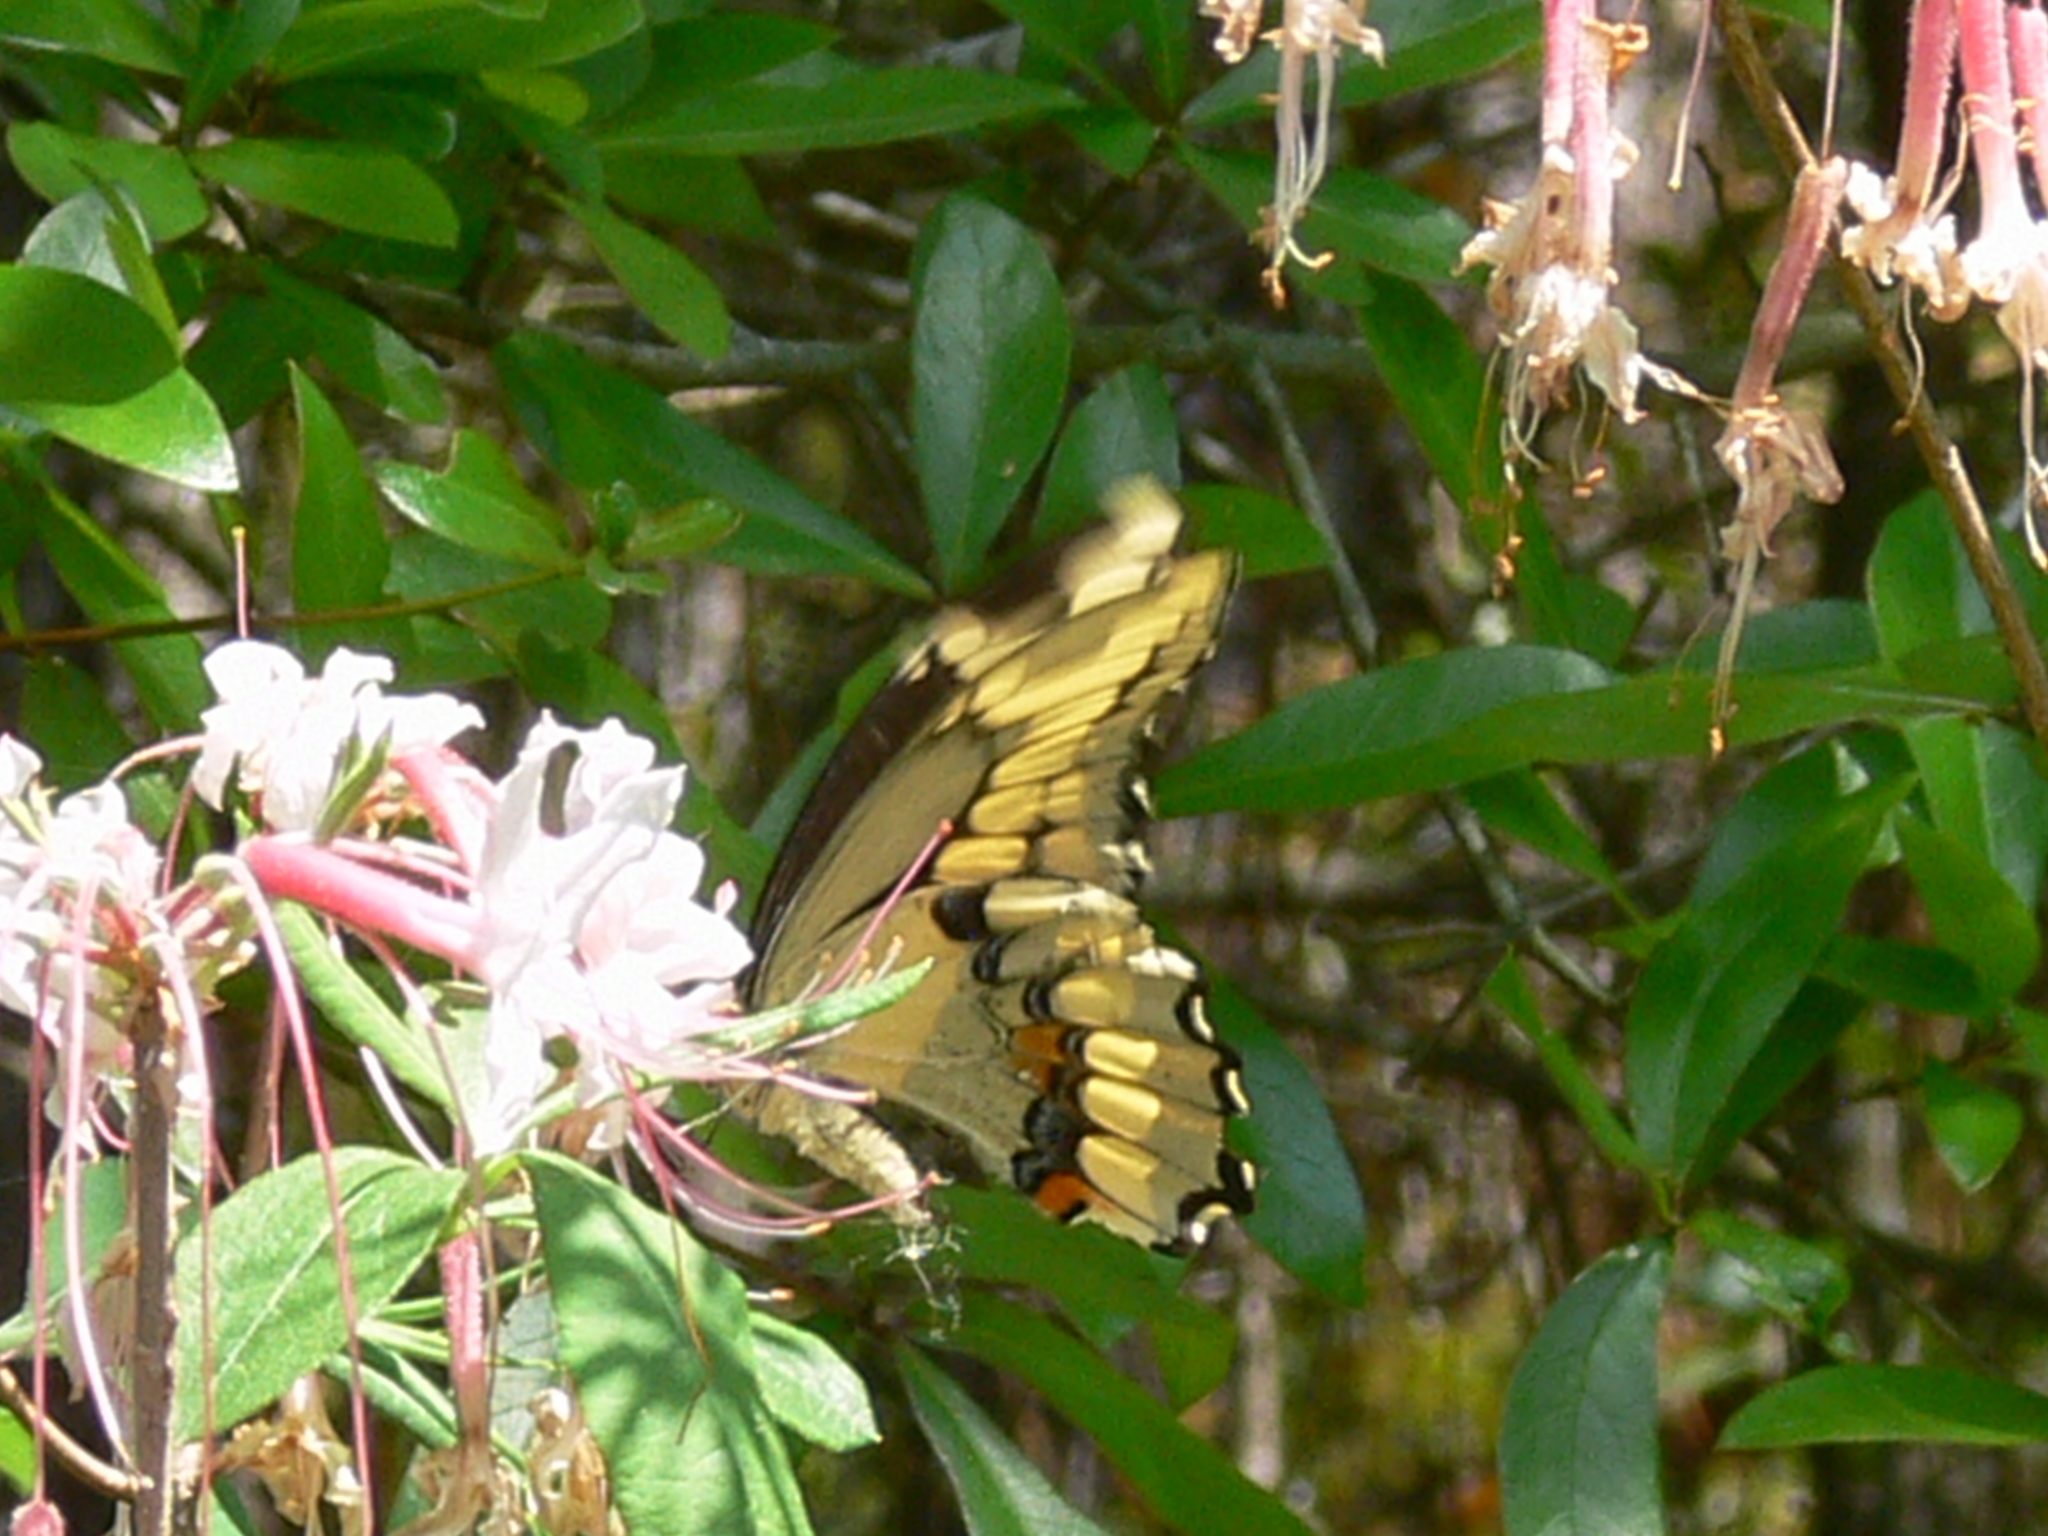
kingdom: Animalia
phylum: Arthropoda
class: Insecta
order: Lepidoptera
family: Papilionidae
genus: Papilio
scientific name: Papilio cresphontes
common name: Giant swallowtail
